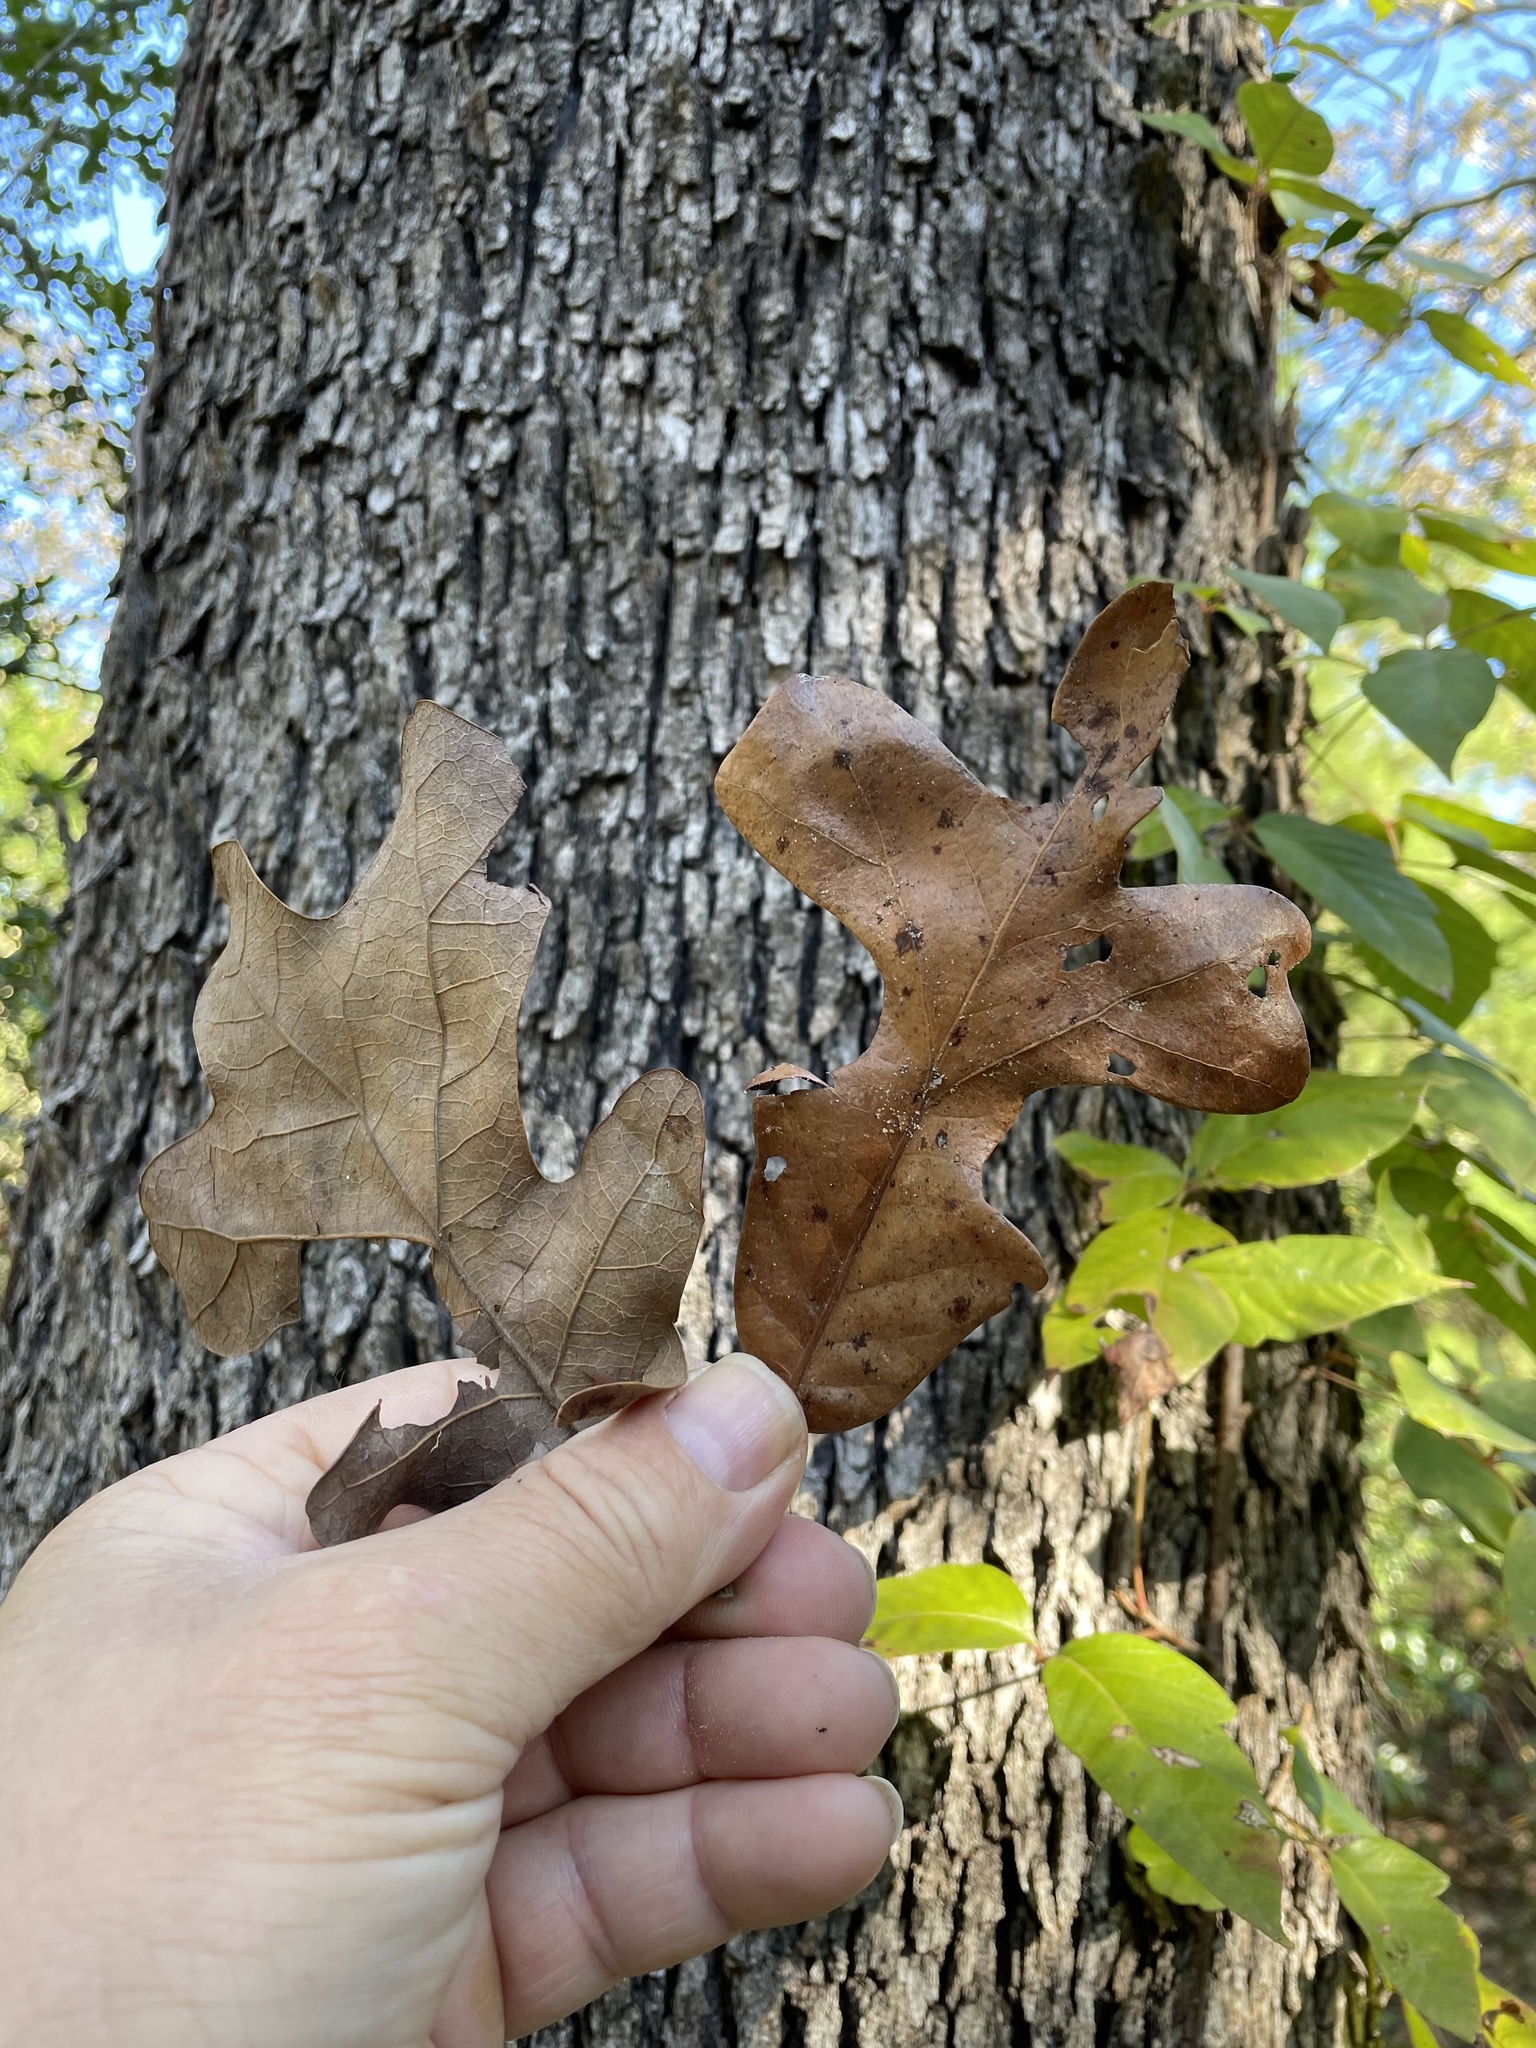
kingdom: Plantae
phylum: Tracheophyta
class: Magnoliopsida
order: Fagales
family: Fagaceae
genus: Quercus
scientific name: Quercus stellata
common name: Post oak
